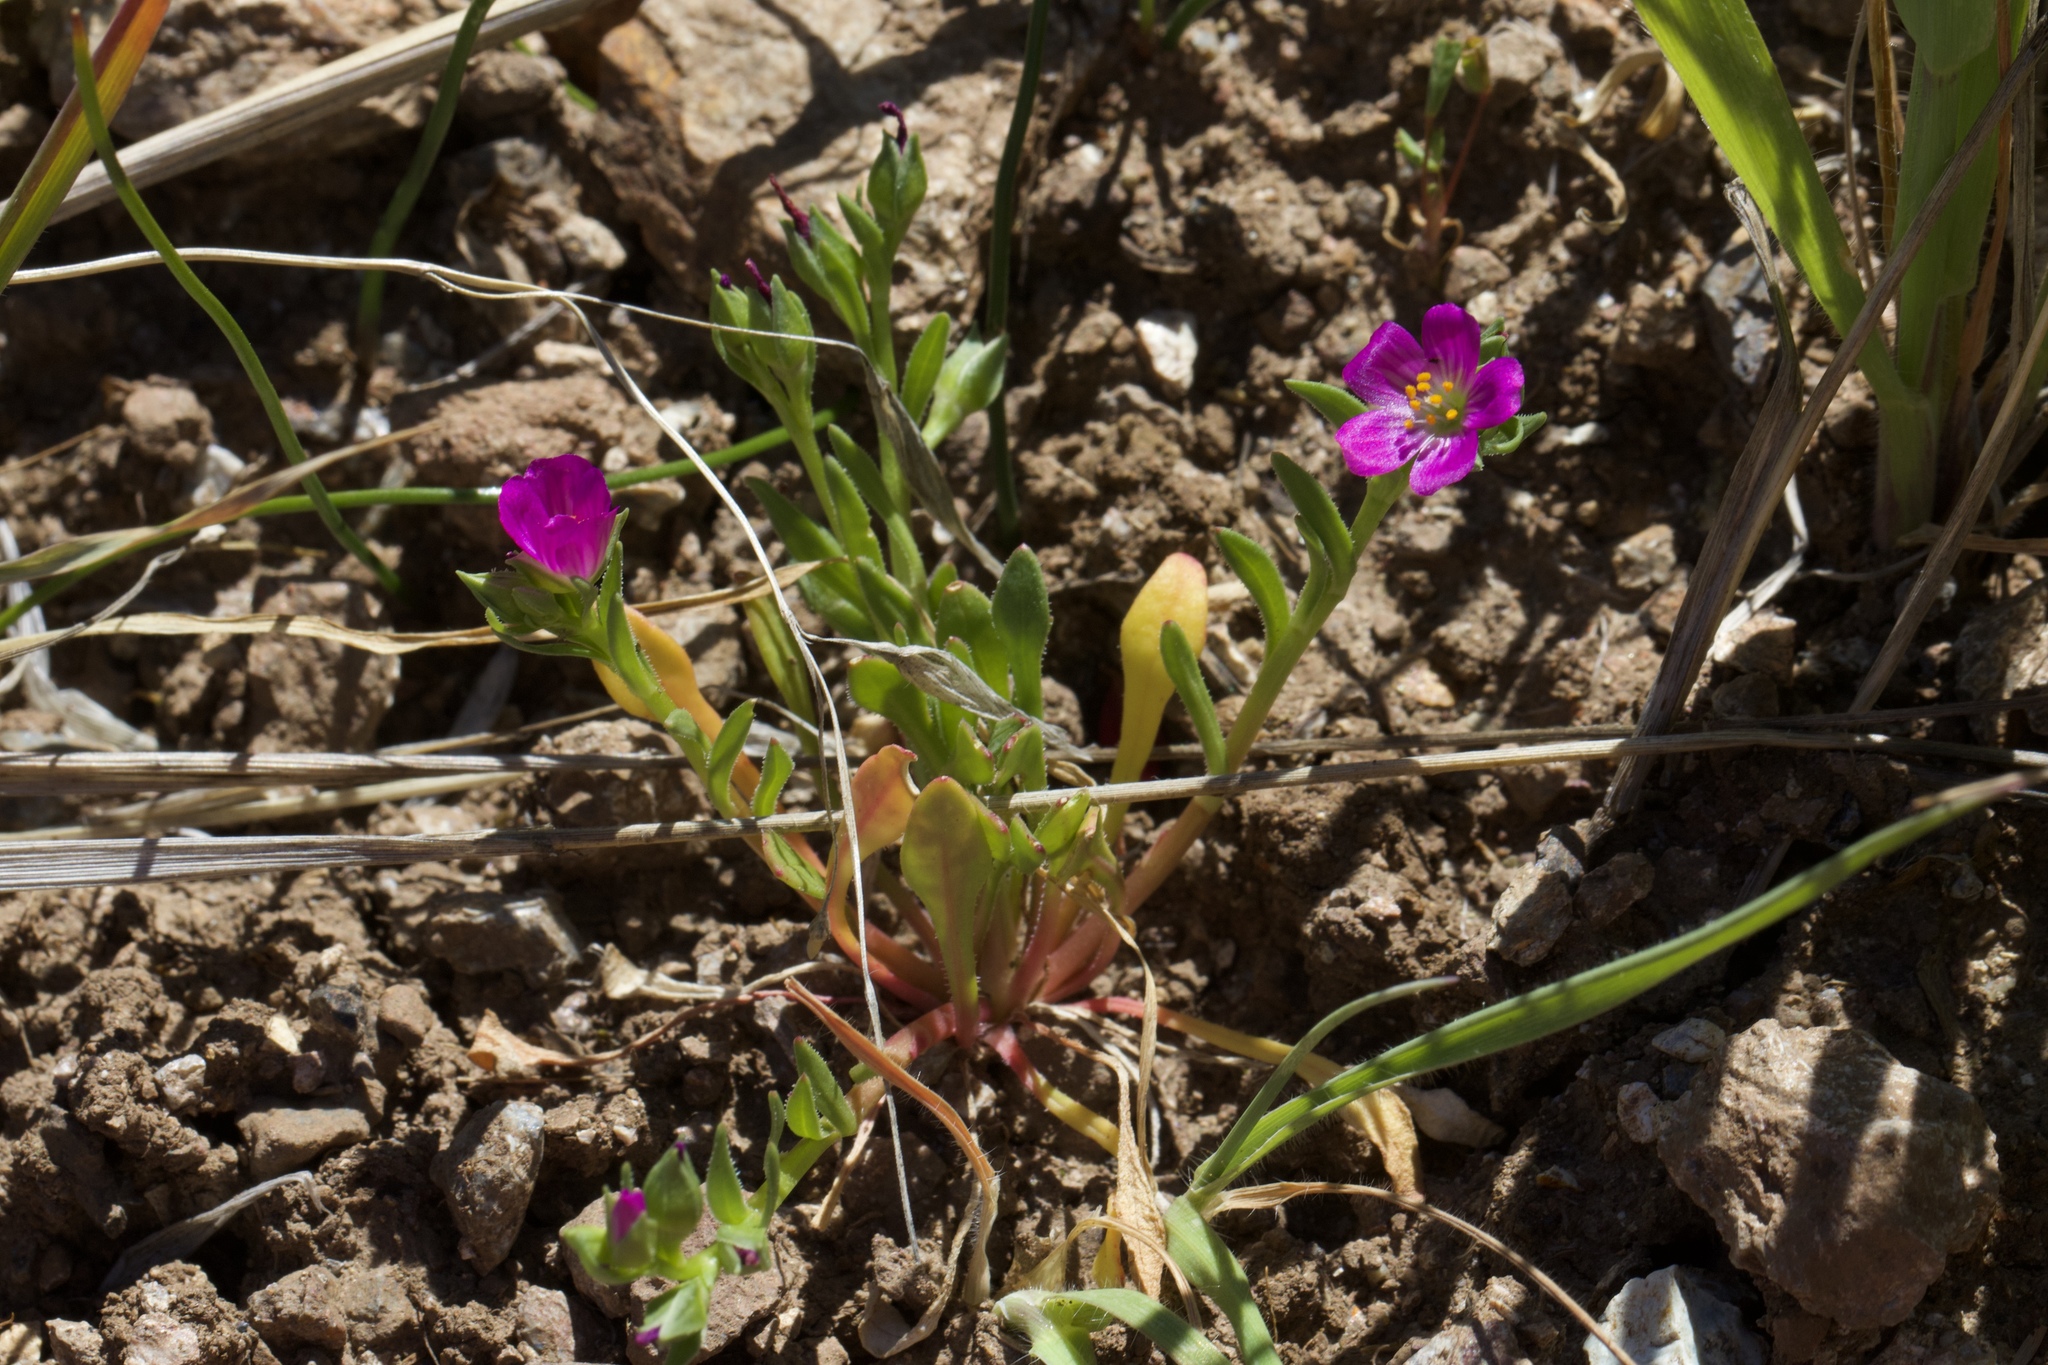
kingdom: Plantae
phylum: Tracheophyta
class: Magnoliopsida
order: Caryophyllales
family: Montiaceae
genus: Calandrinia
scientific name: Calandrinia menziesii
